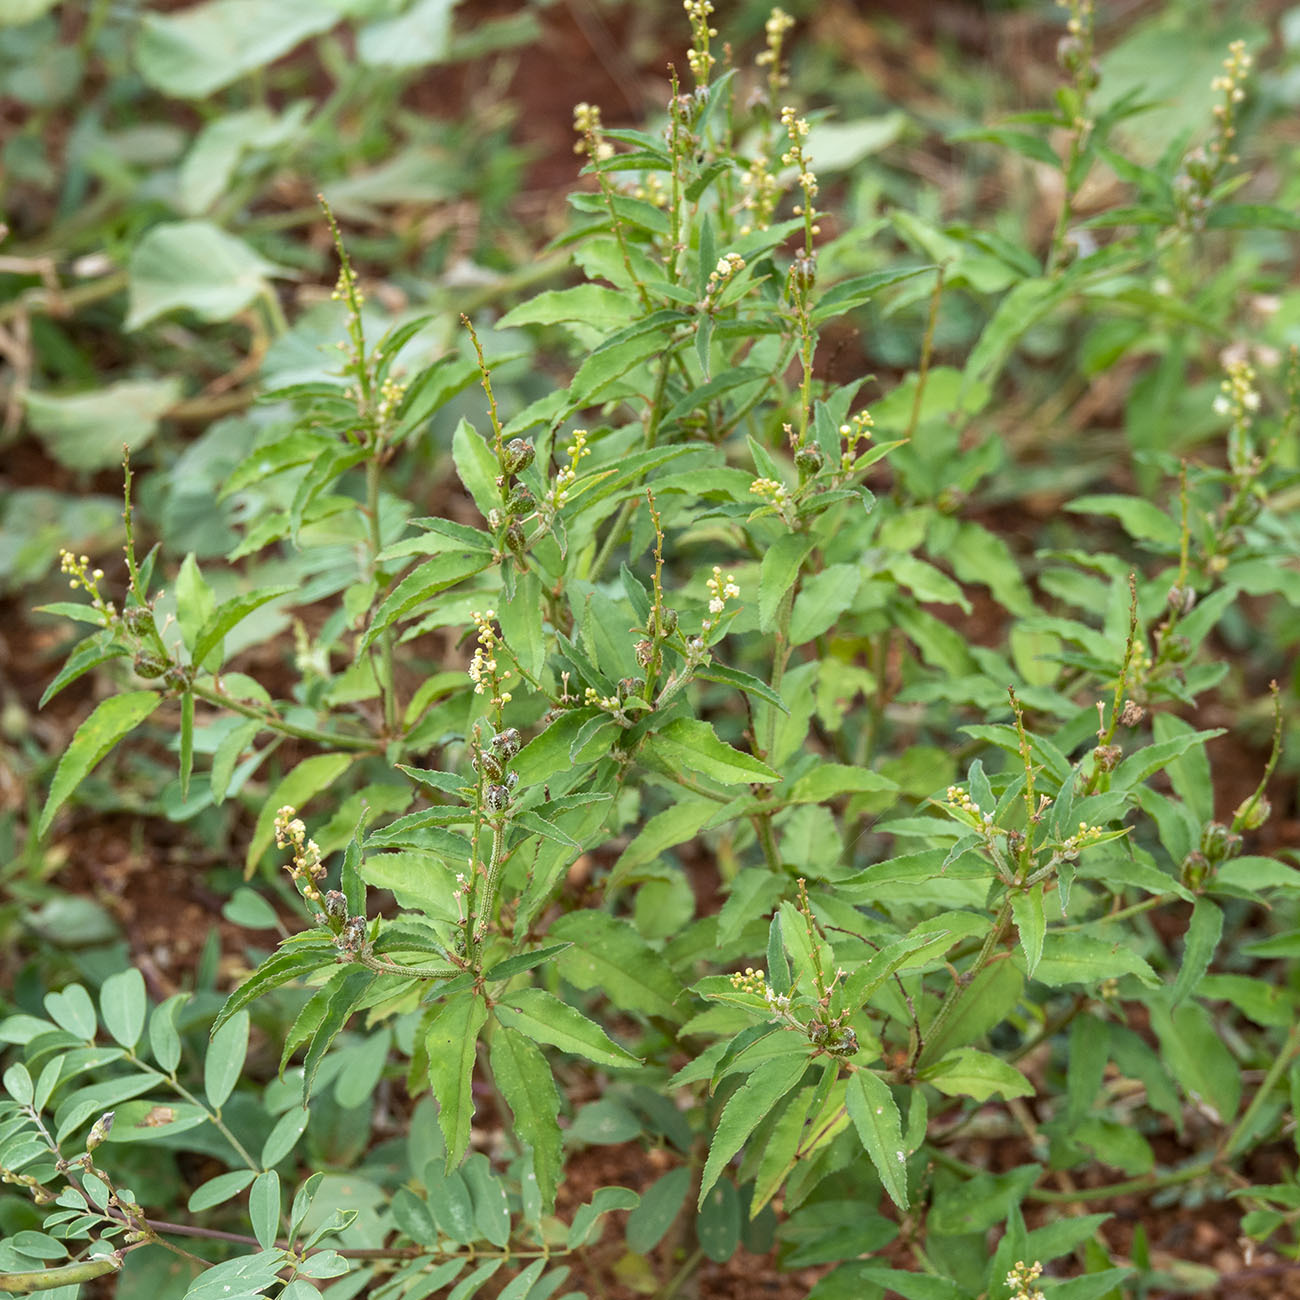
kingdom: Plantae
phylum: Tracheophyta
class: Magnoliopsida
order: Malpighiales
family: Euphorbiaceae
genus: Croton
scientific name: Croton bonplandianus
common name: Bonpland's croton
